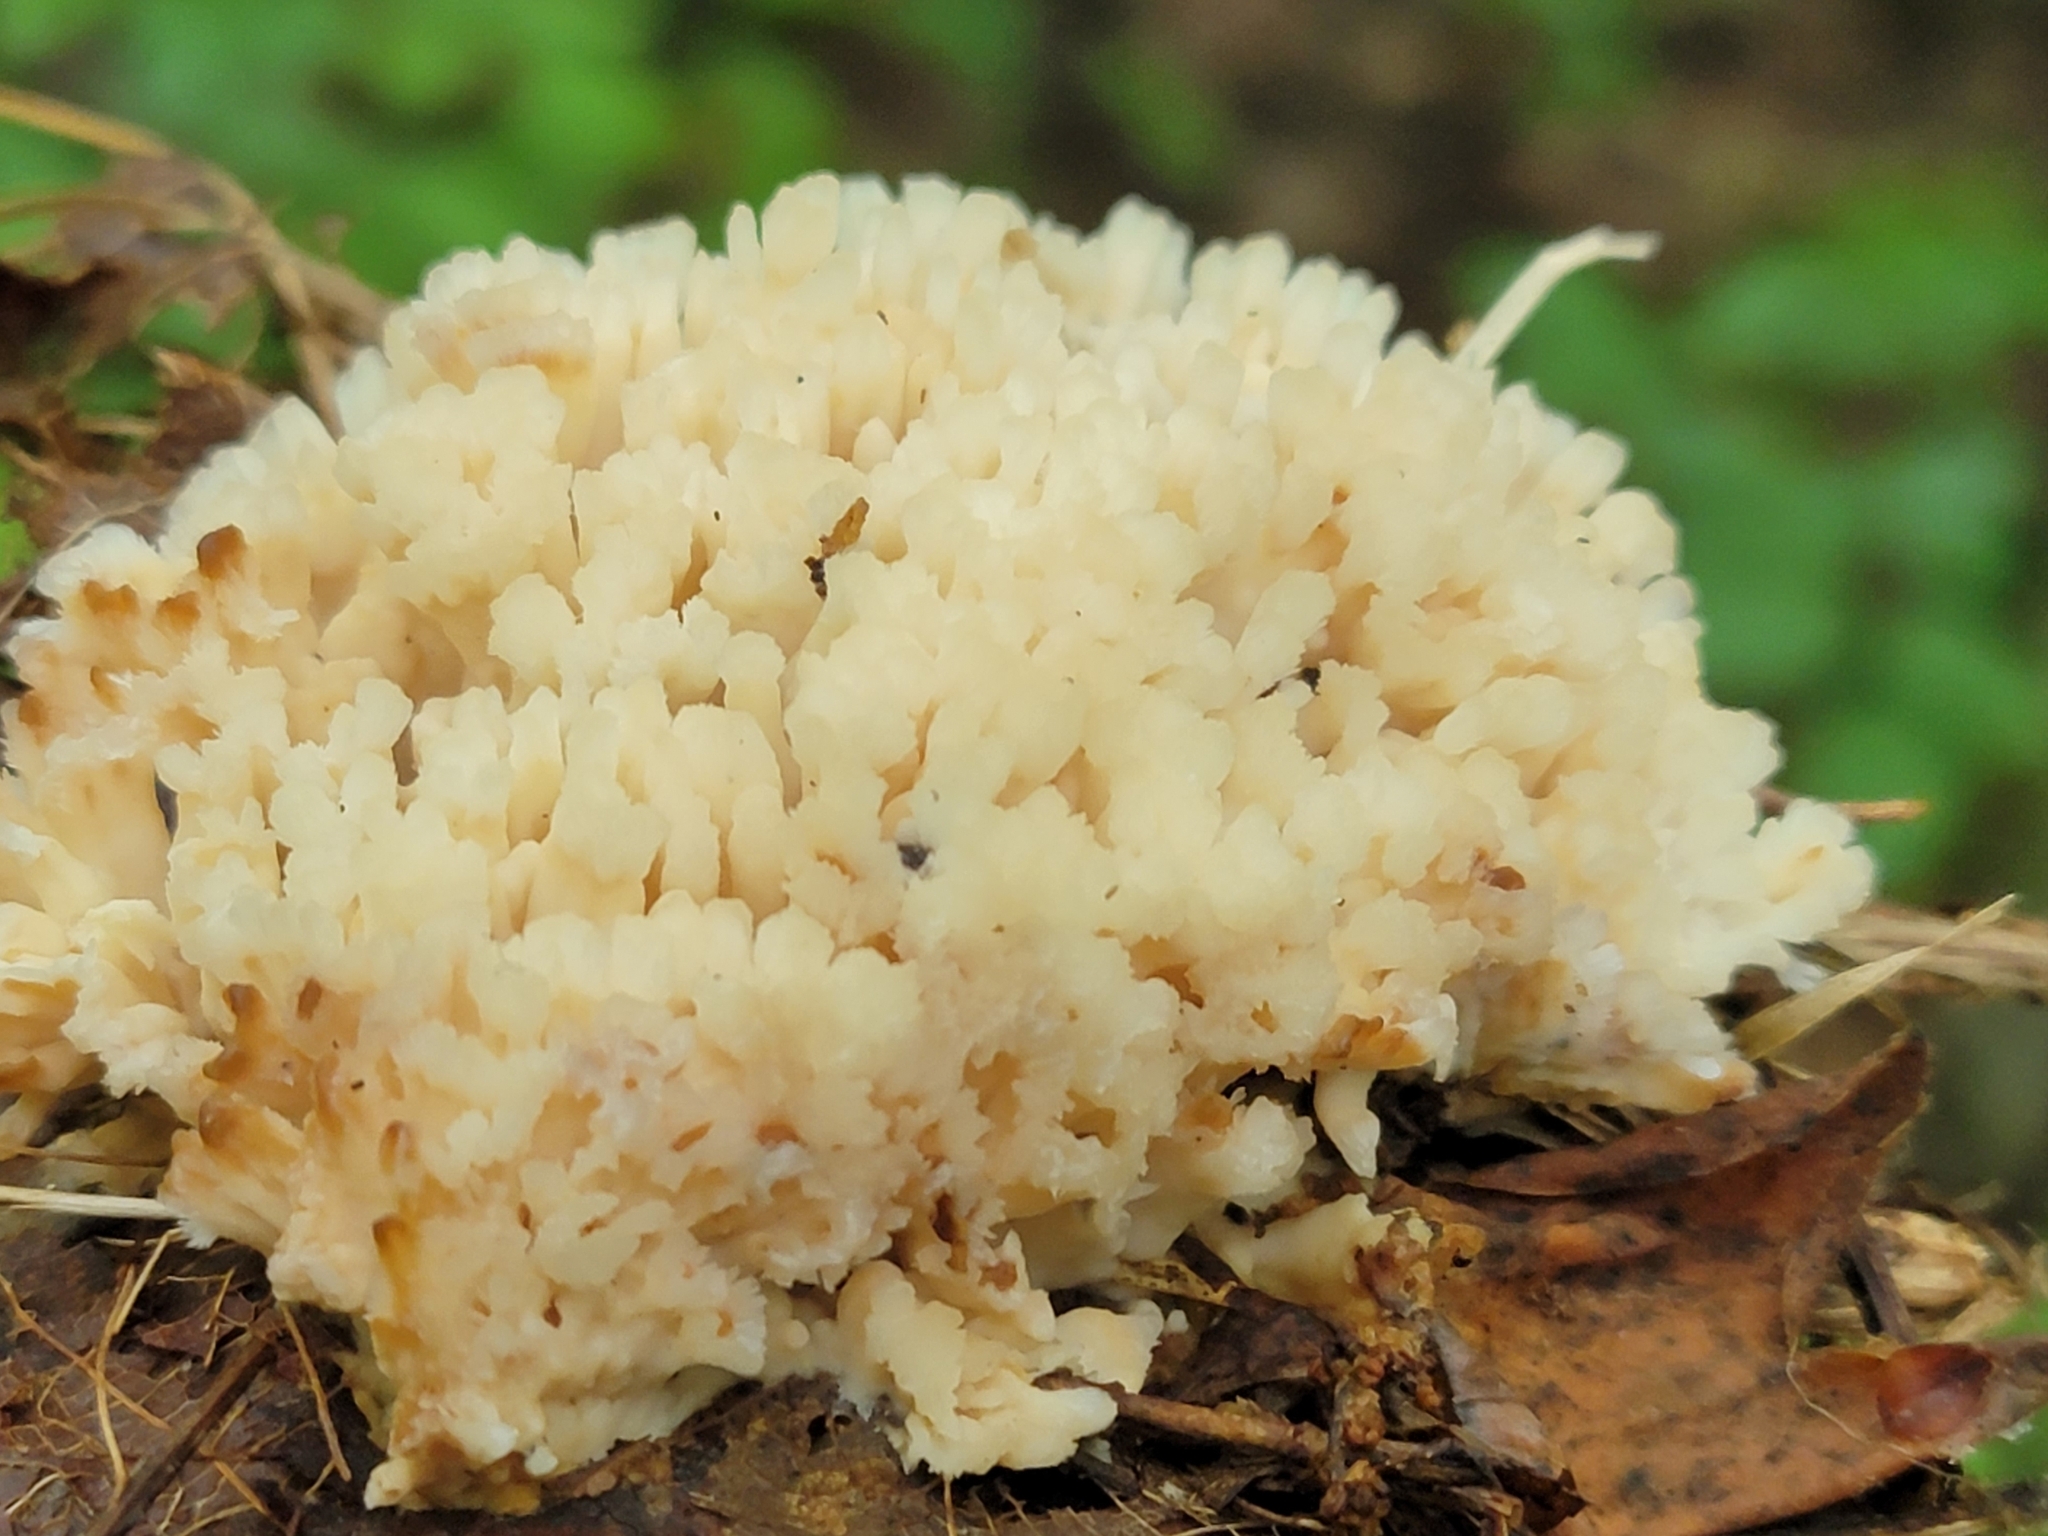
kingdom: Fungi
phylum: Basidiomycota
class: Agaricomycetes
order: Sebacinales
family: Sebacinaceae
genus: Sebacina
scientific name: Sebacina schweinitzii
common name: Jellied false coral fungus
